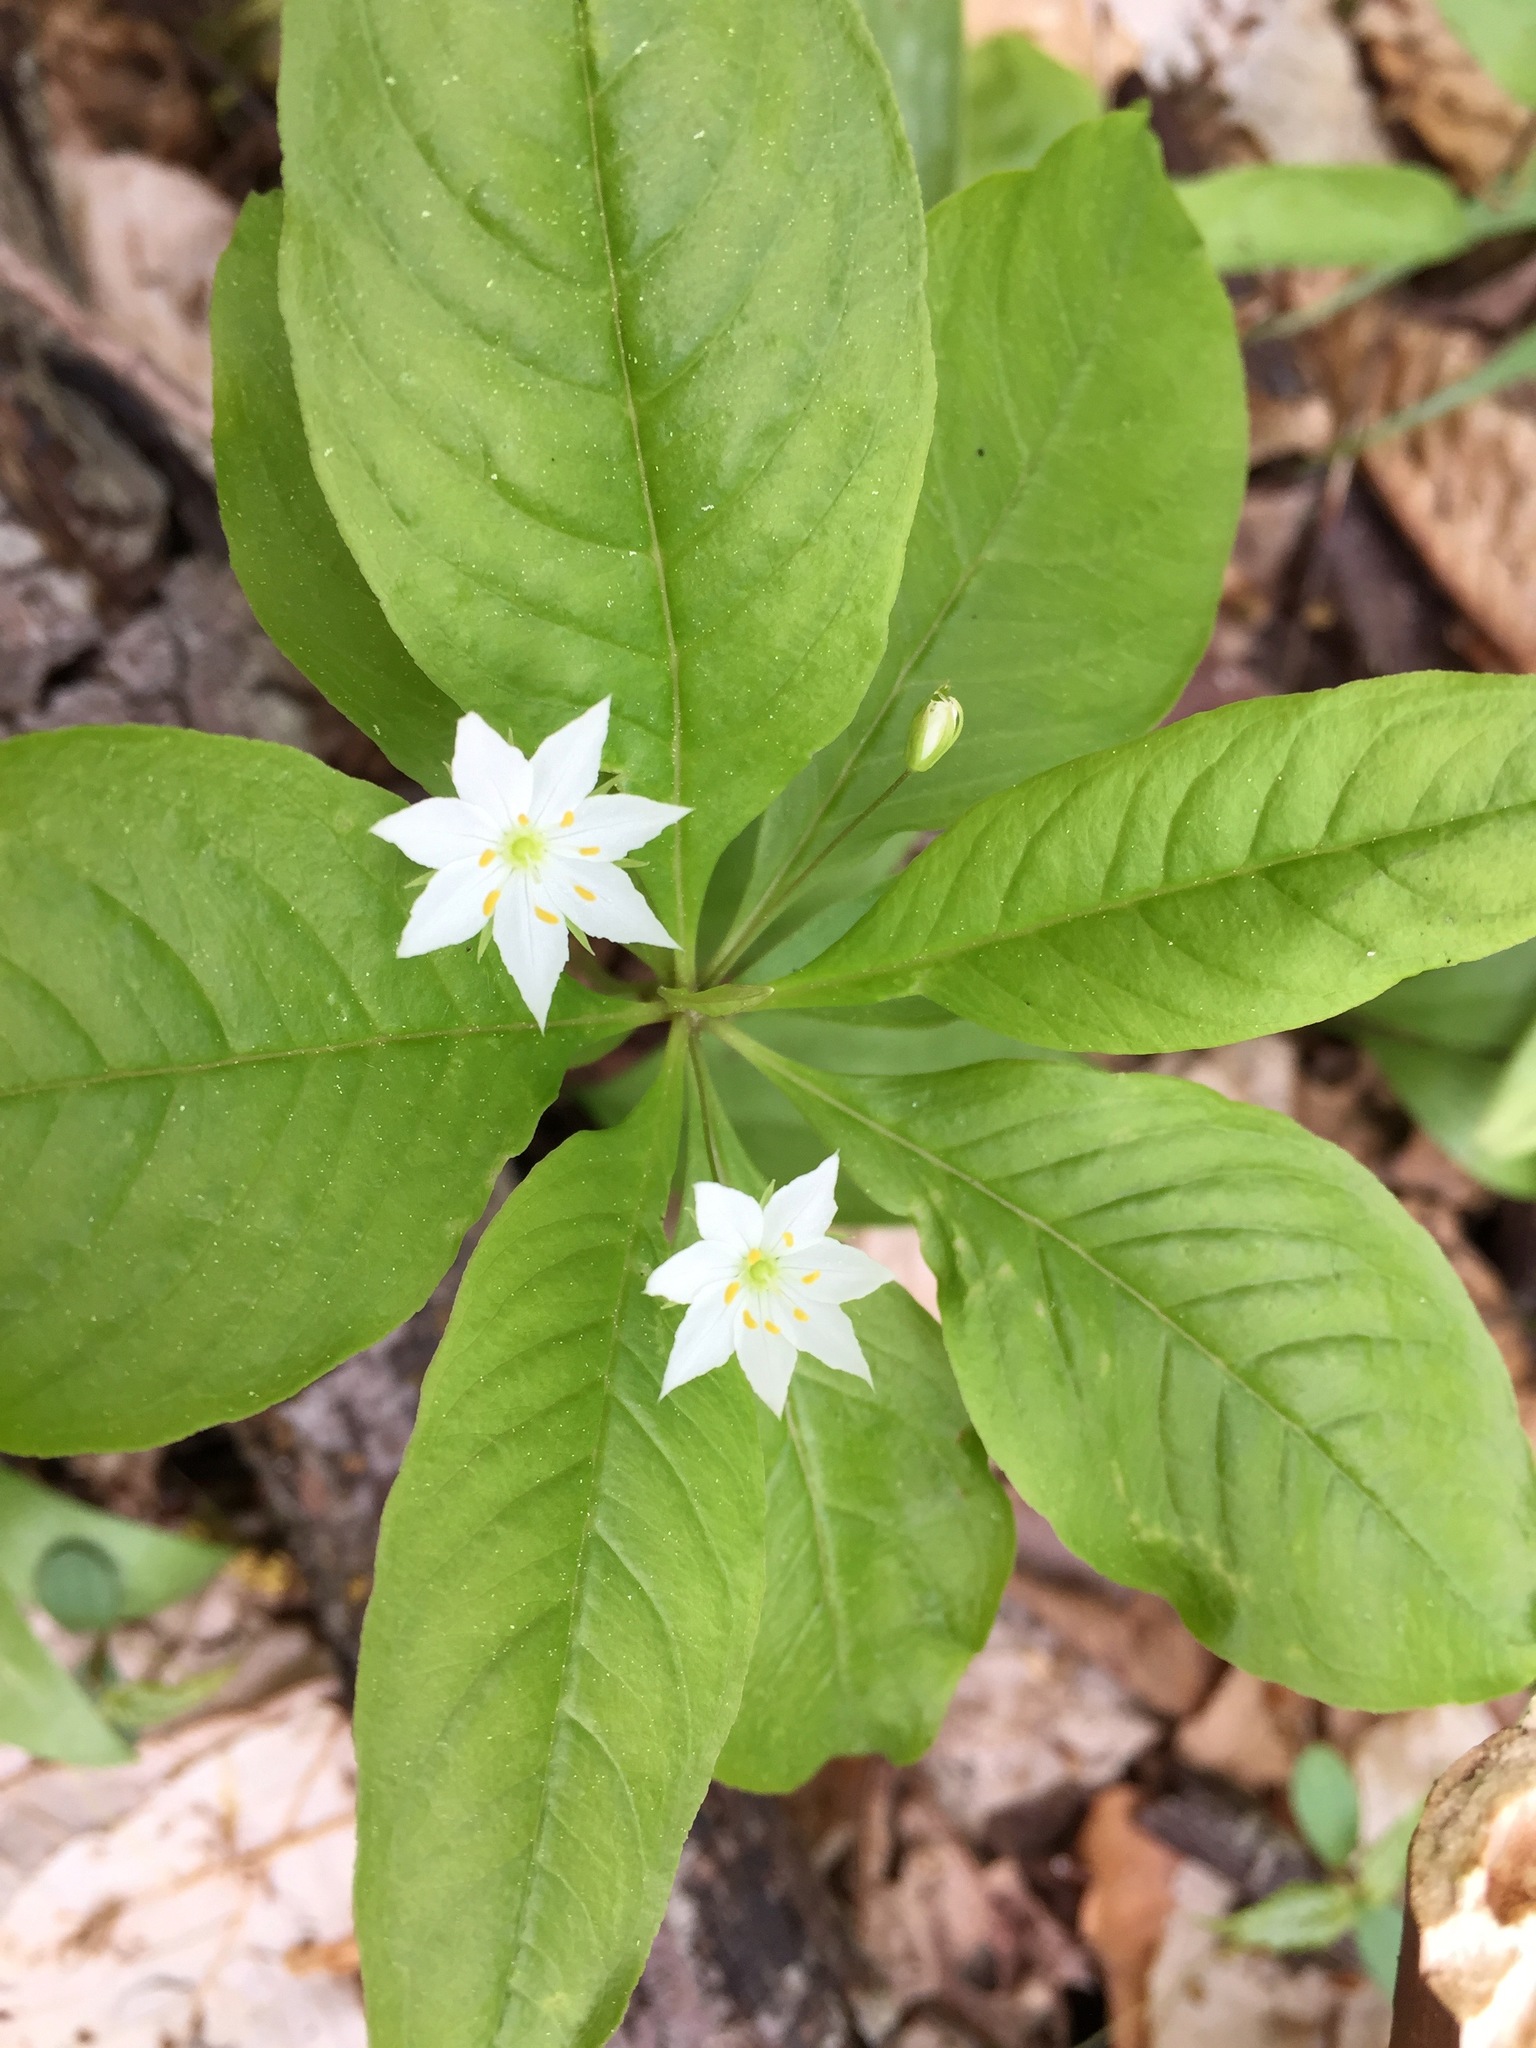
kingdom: Plantae
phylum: Tracheophyta
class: Magnoliopsida
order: Ericales
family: Primulaceae
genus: Lysimachia
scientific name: Lysimachia borealis
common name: American starflower
